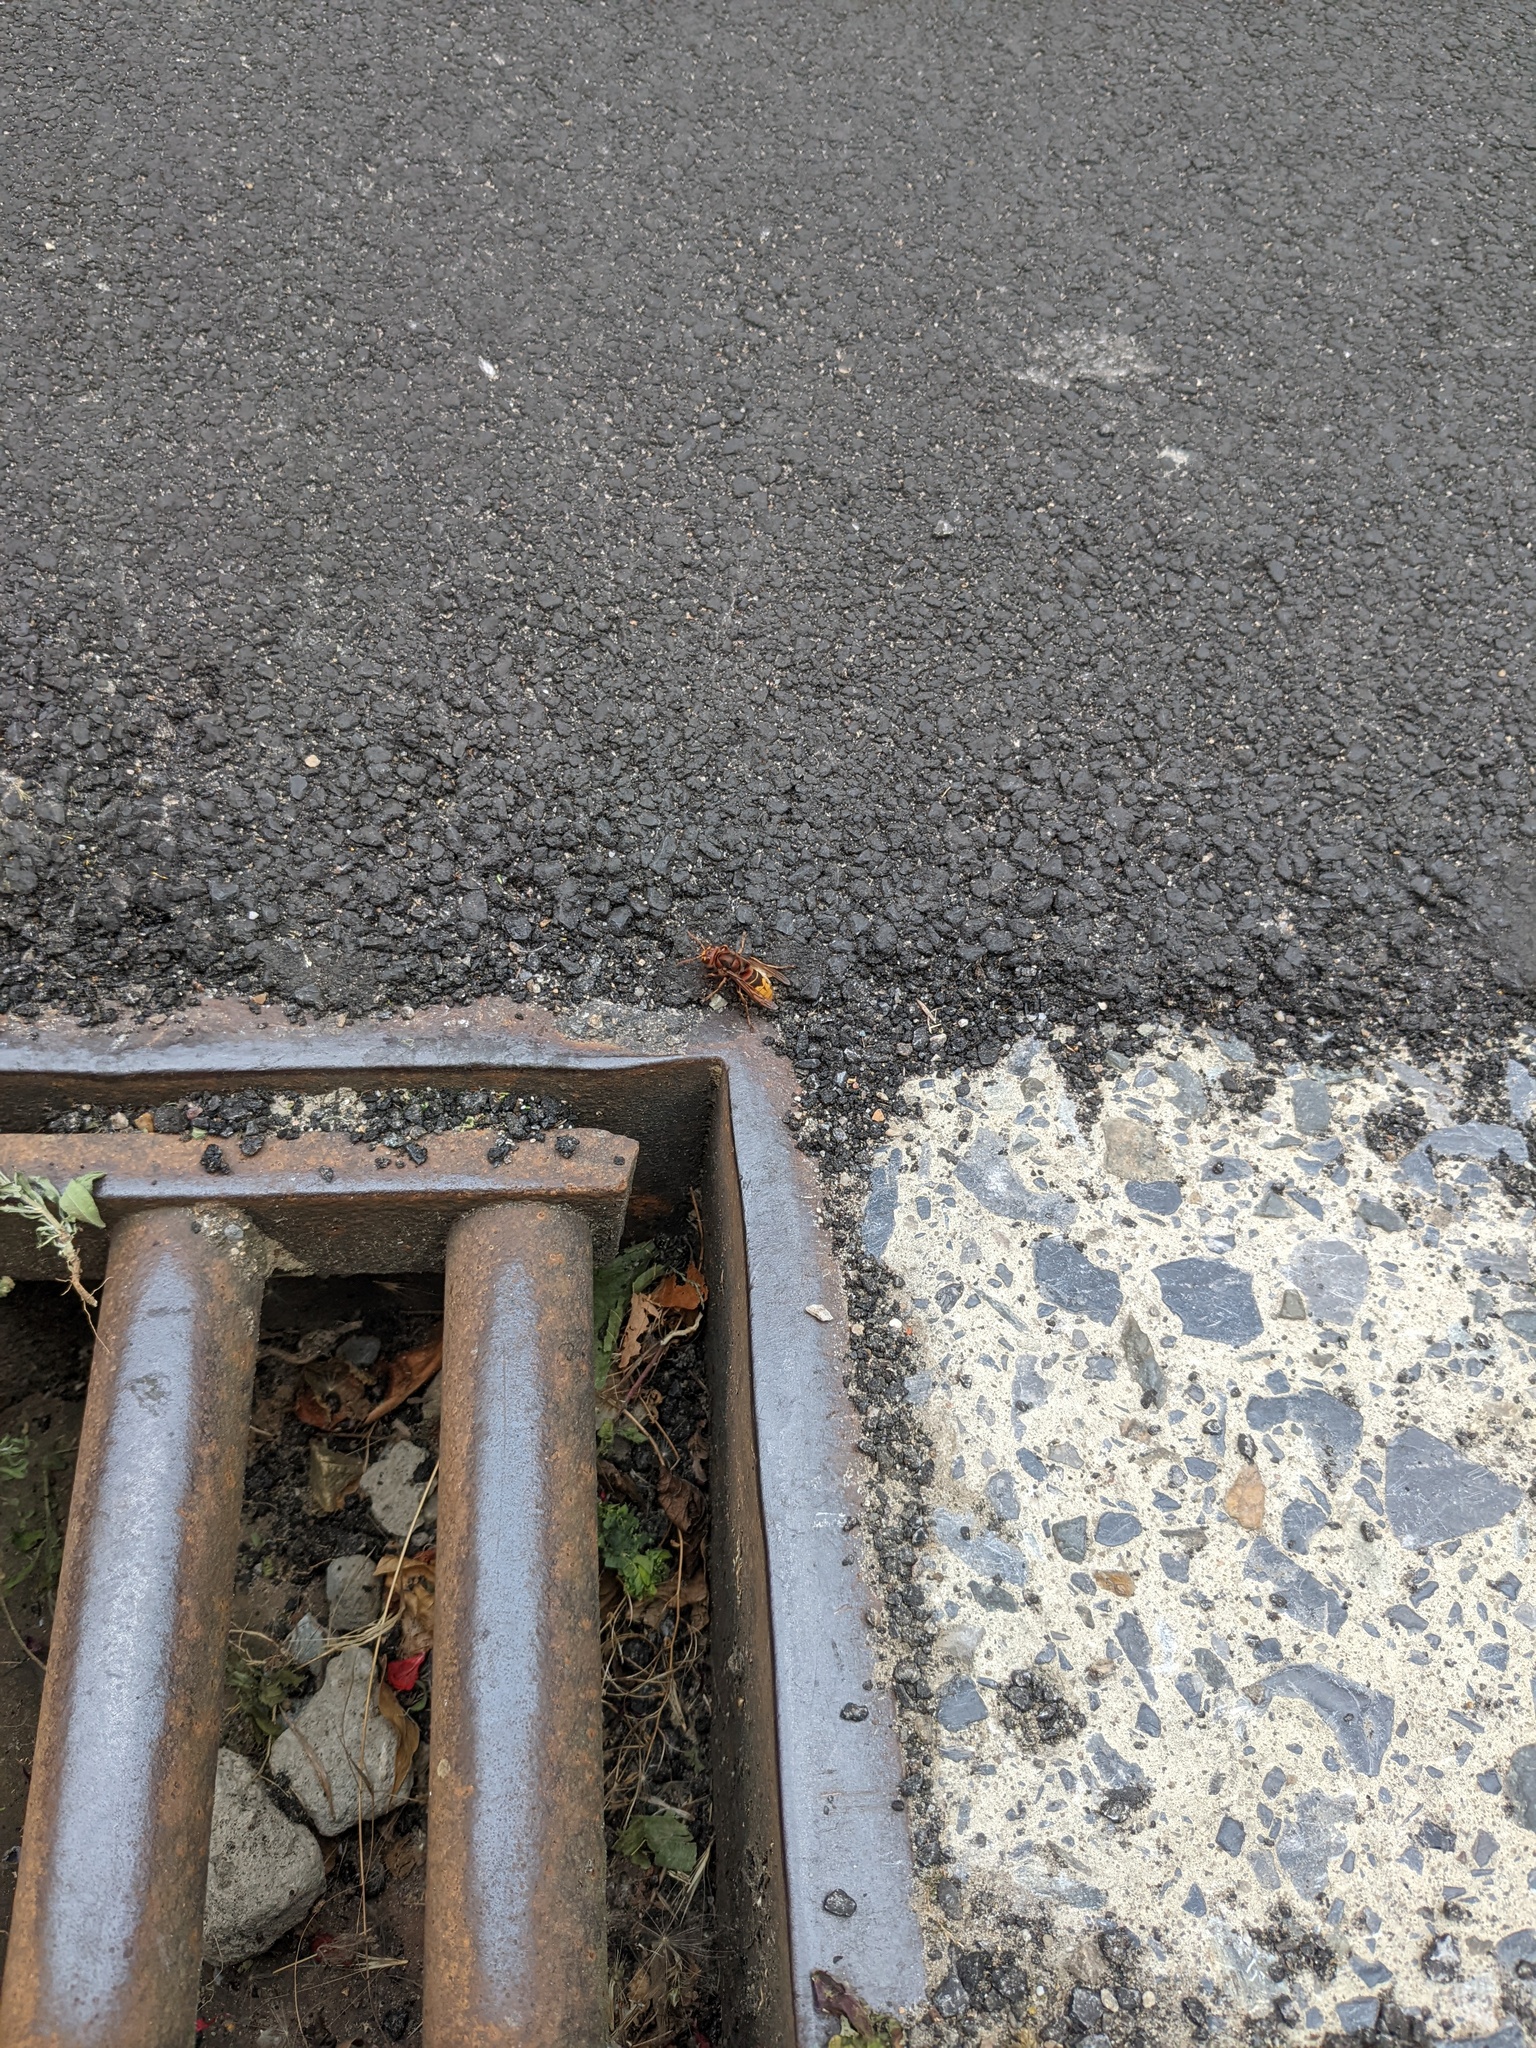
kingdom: Animalia
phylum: Arthropoda
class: Insecta
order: Hymenoptera
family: Vespidae
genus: Vespa
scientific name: Vespa crabro
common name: Hornet
